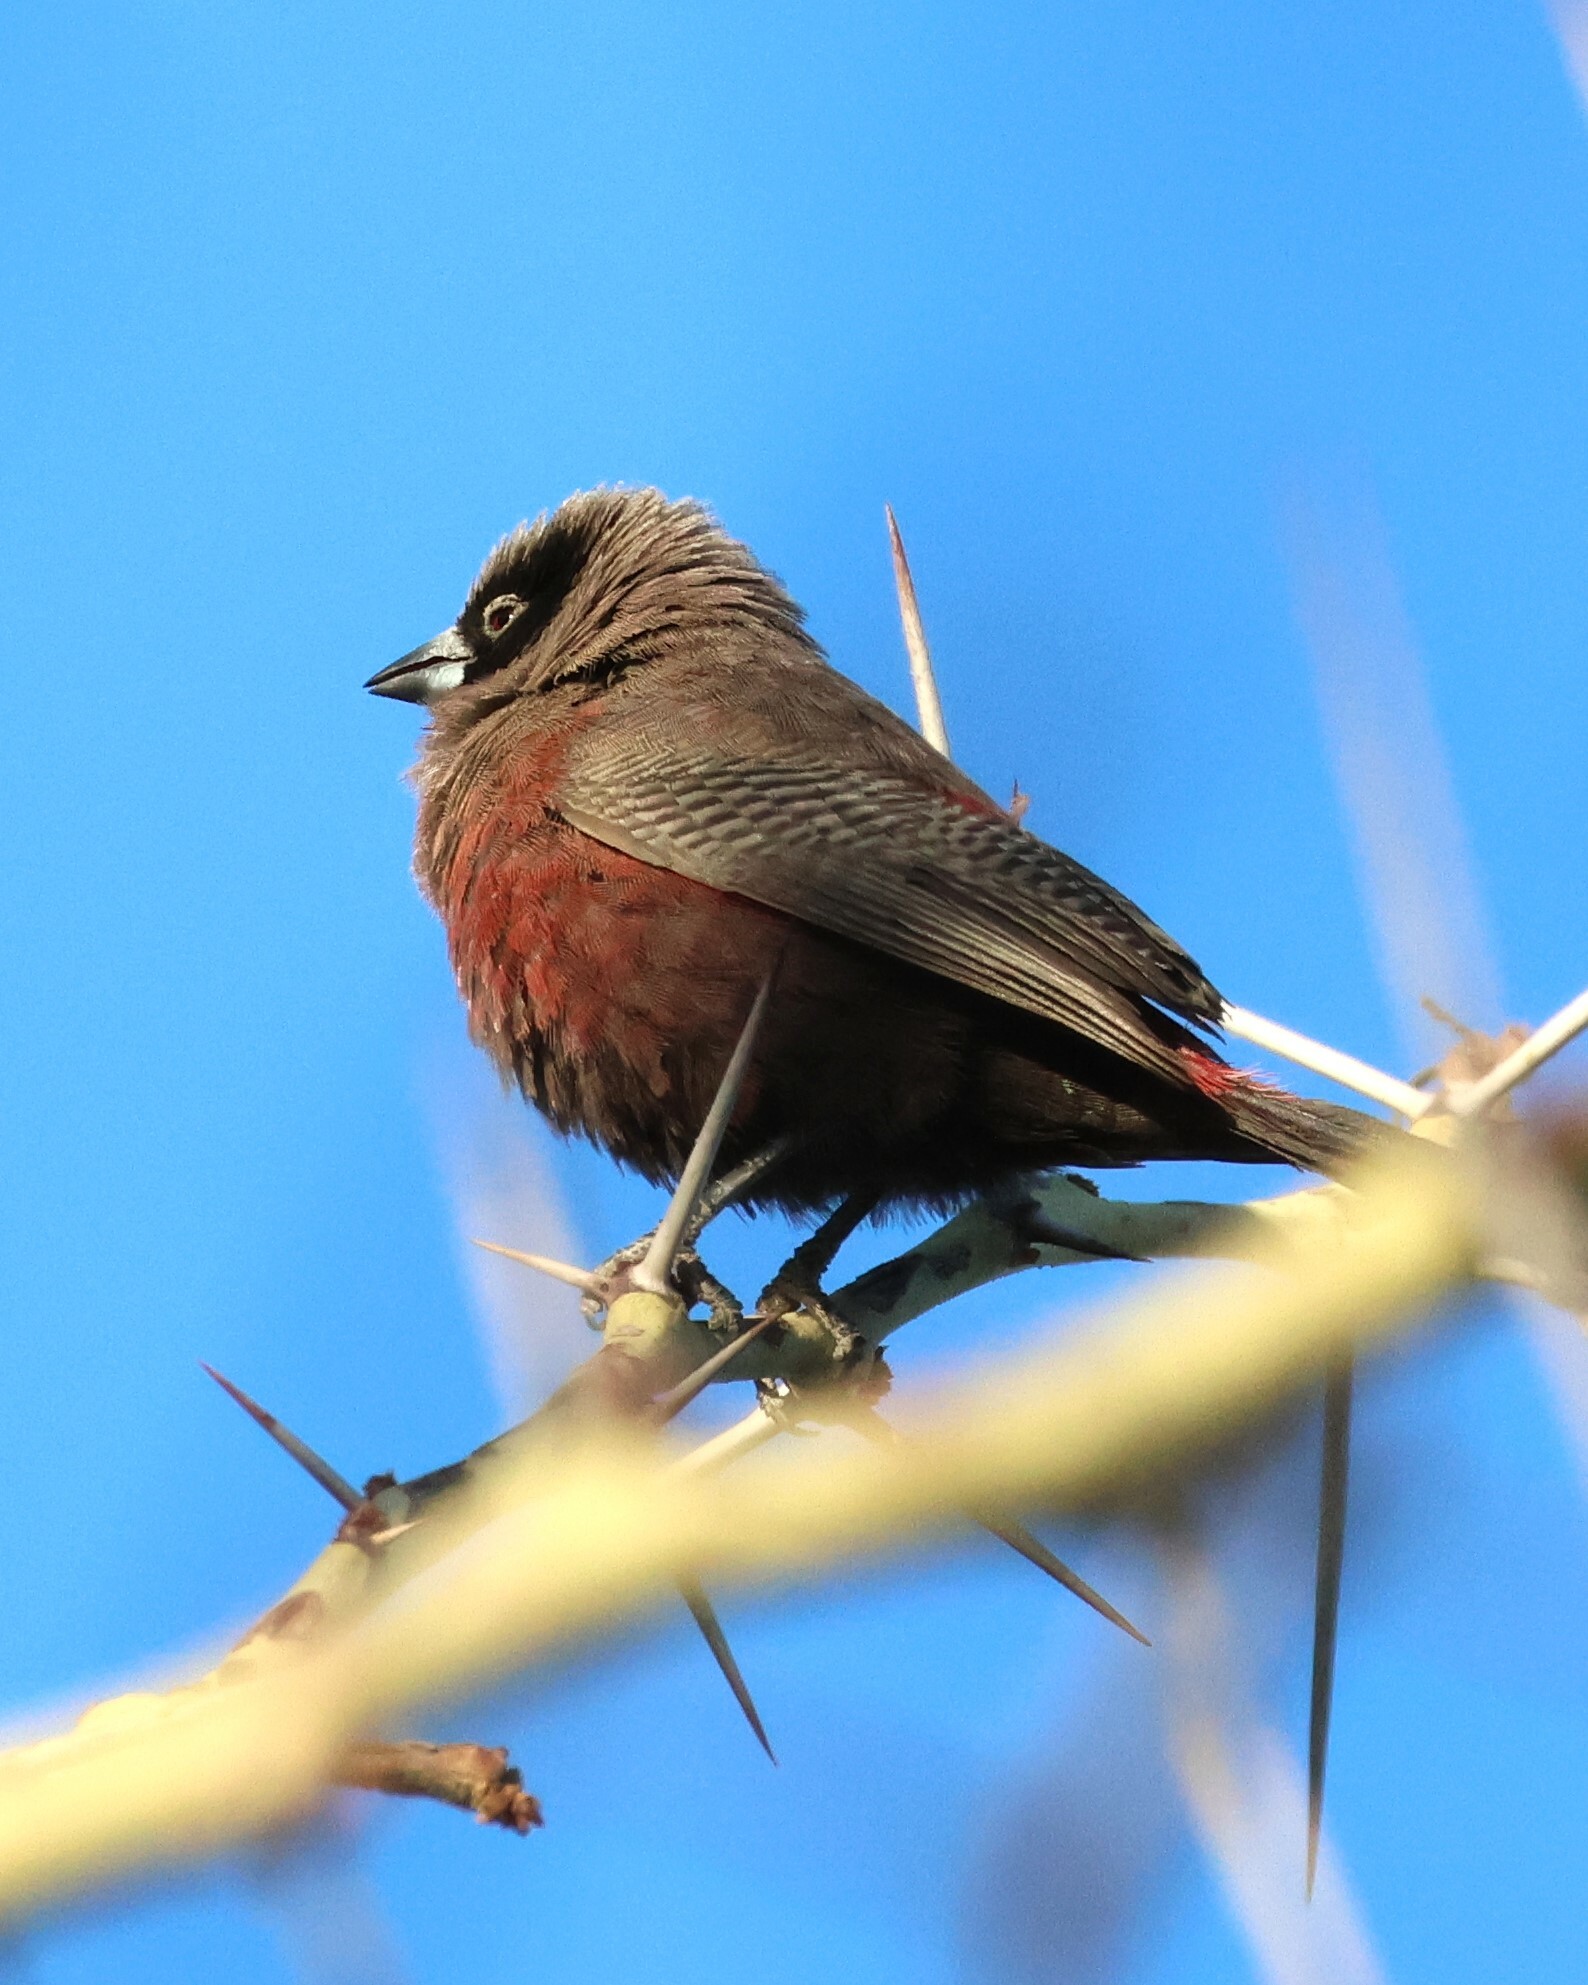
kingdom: Animalia
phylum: Chordata
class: Aves
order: Passeriformes
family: Estrildidae
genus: Estrilda
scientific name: Estrilda erythronotos
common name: Black-faced waxbill
